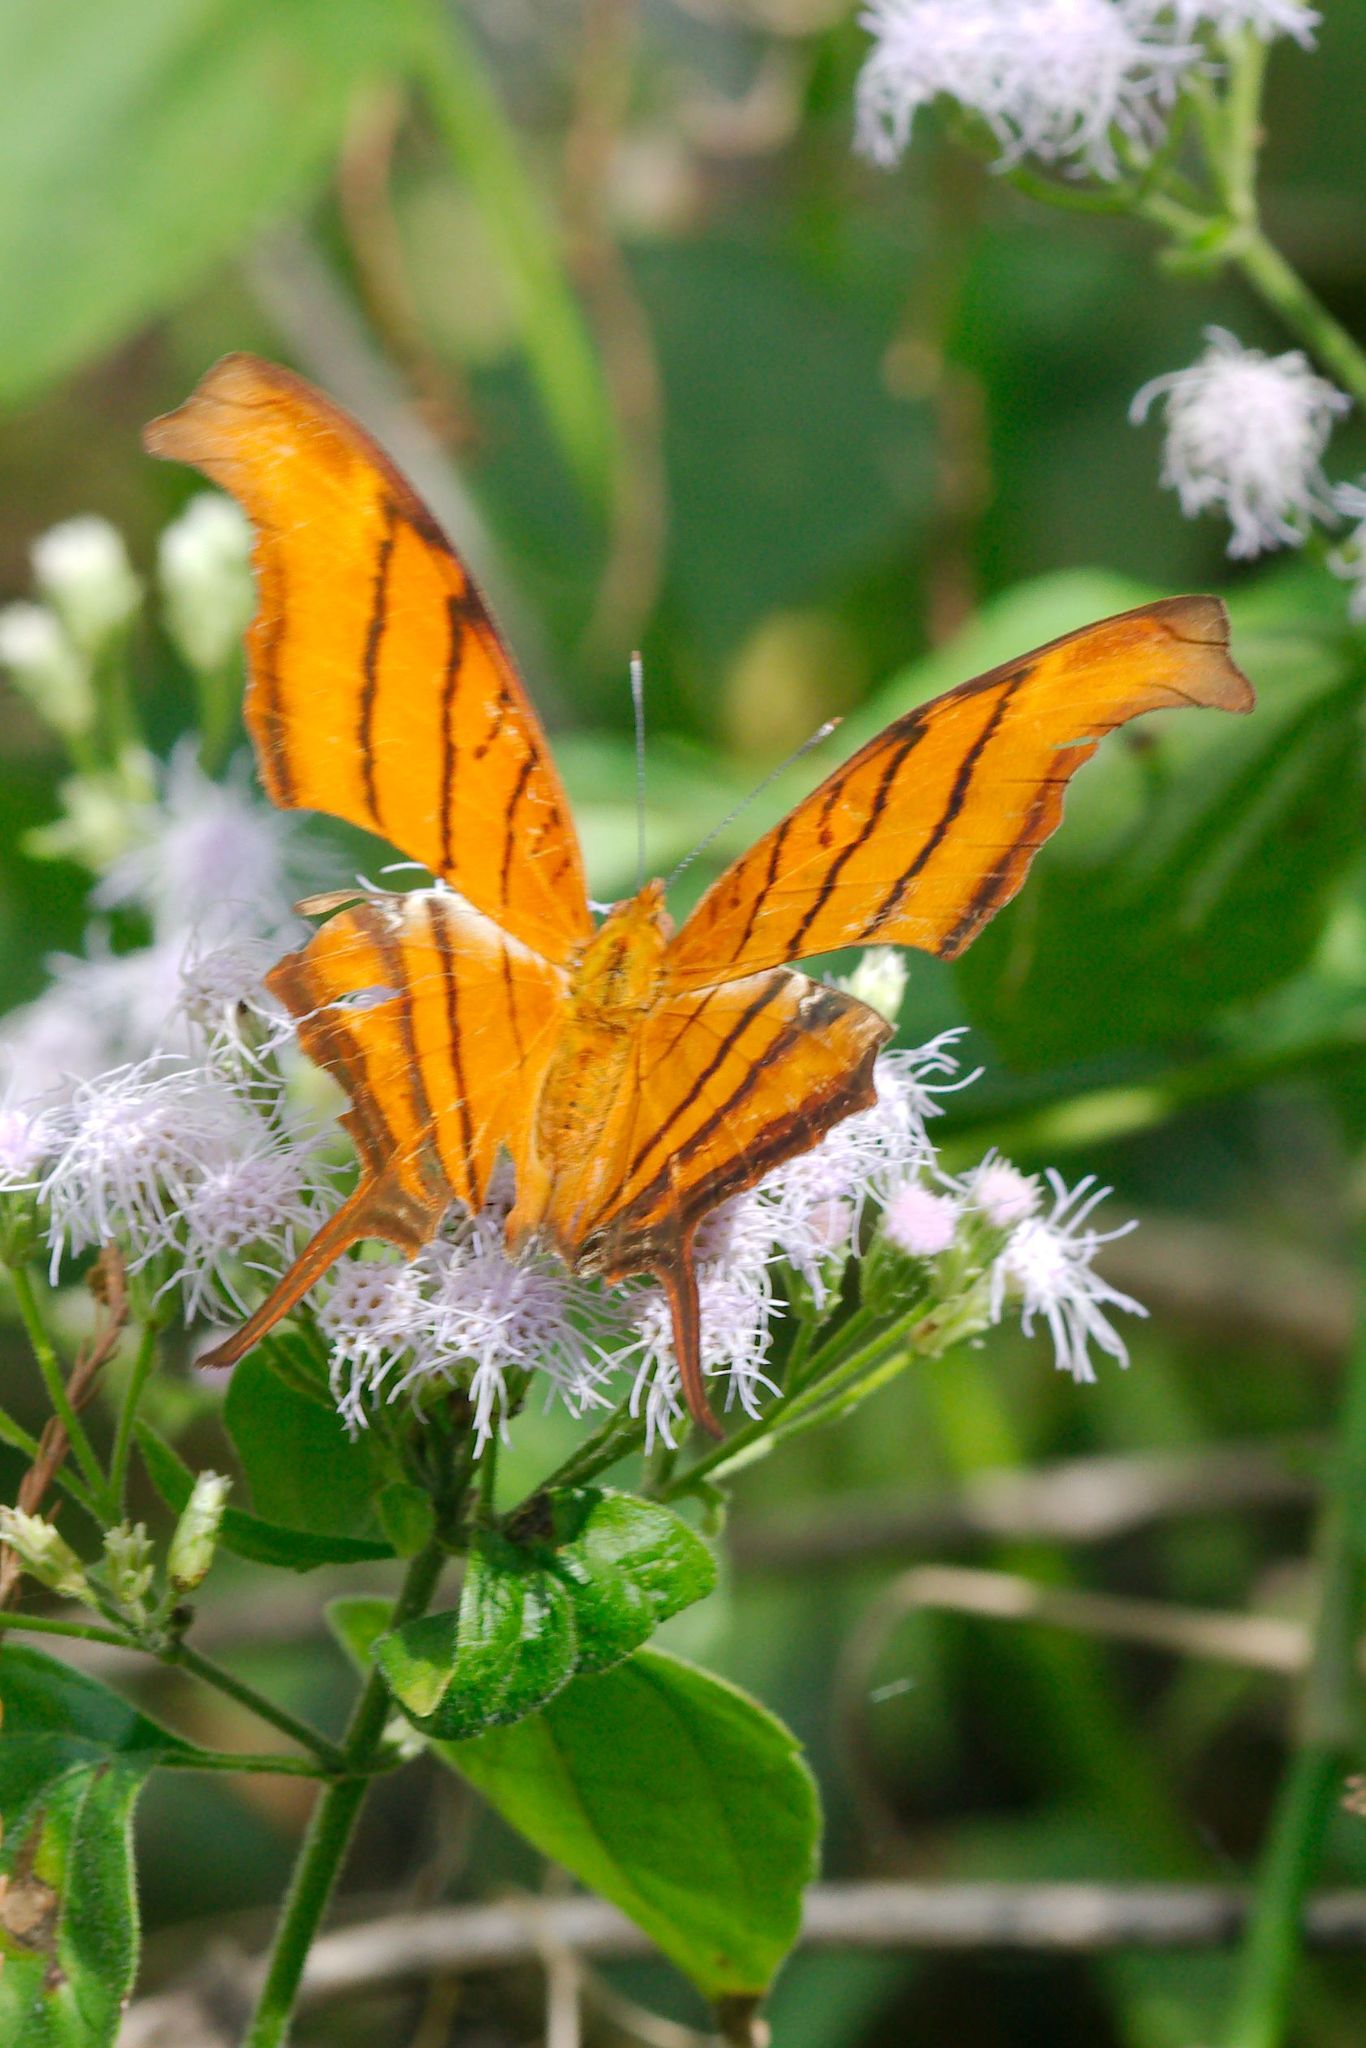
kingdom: Animalia
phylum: Arthropoda
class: Insecta
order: Lepidoptera
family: Nymphalidae
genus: Marpesia
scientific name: Marpesia petreus
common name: Red dagger wing
